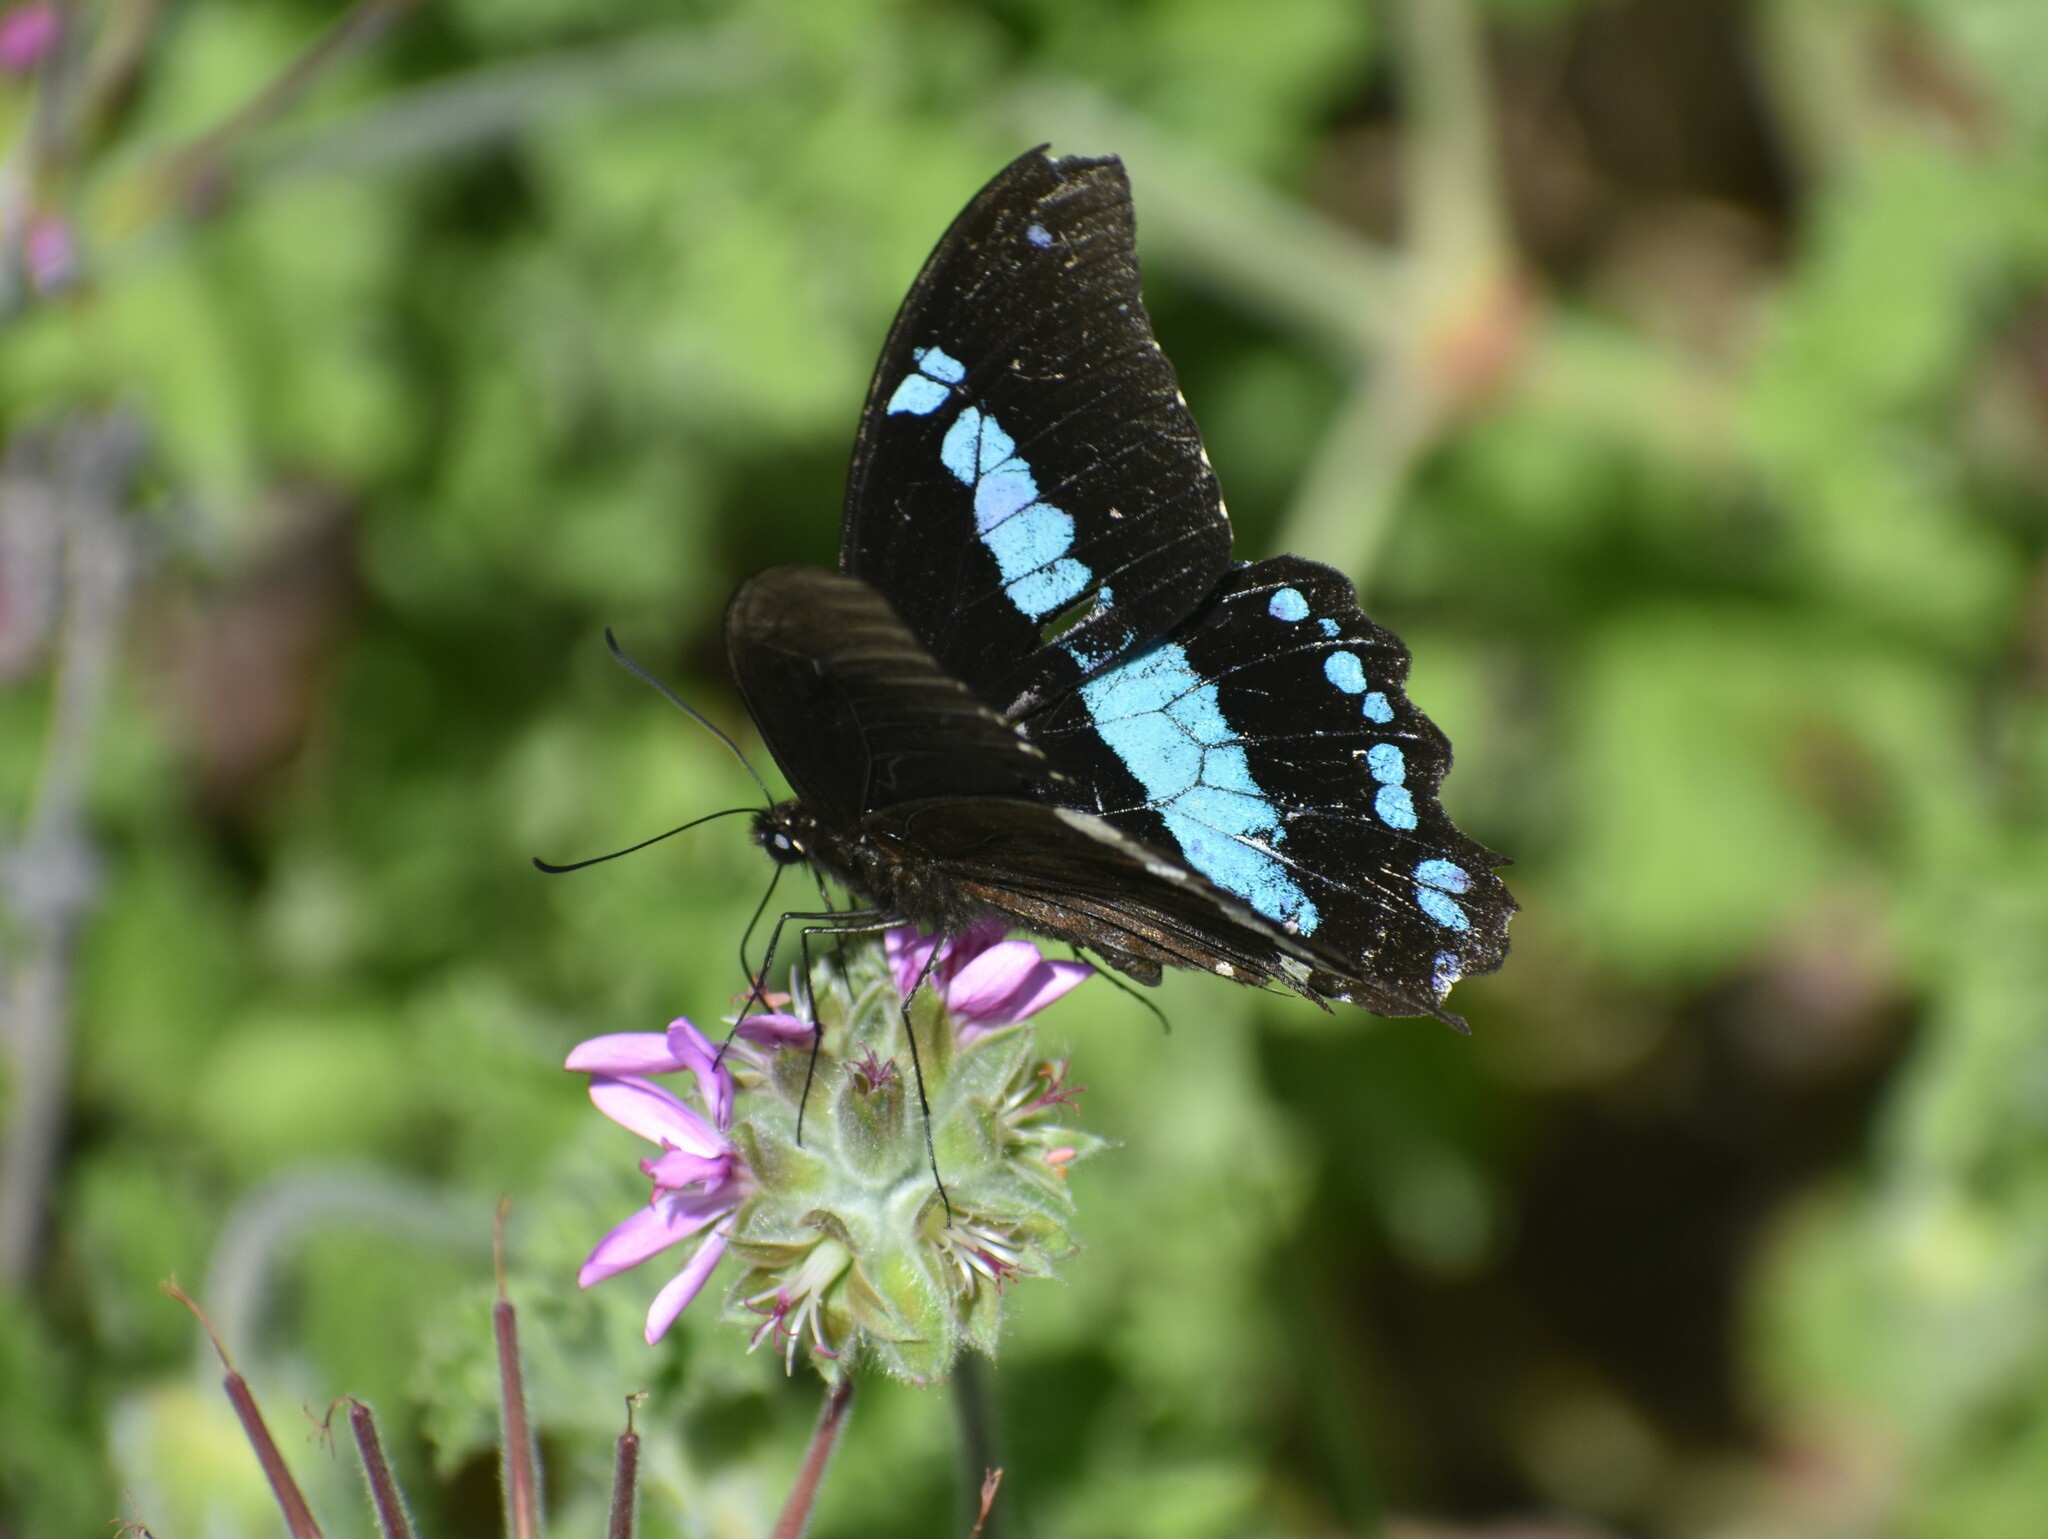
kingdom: Animalia
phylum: Arthropoda
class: Insecta
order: Lepidoptera
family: Papilionidae
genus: Papilio
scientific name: Papilio nireus
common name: Greenbanded swallowtail
